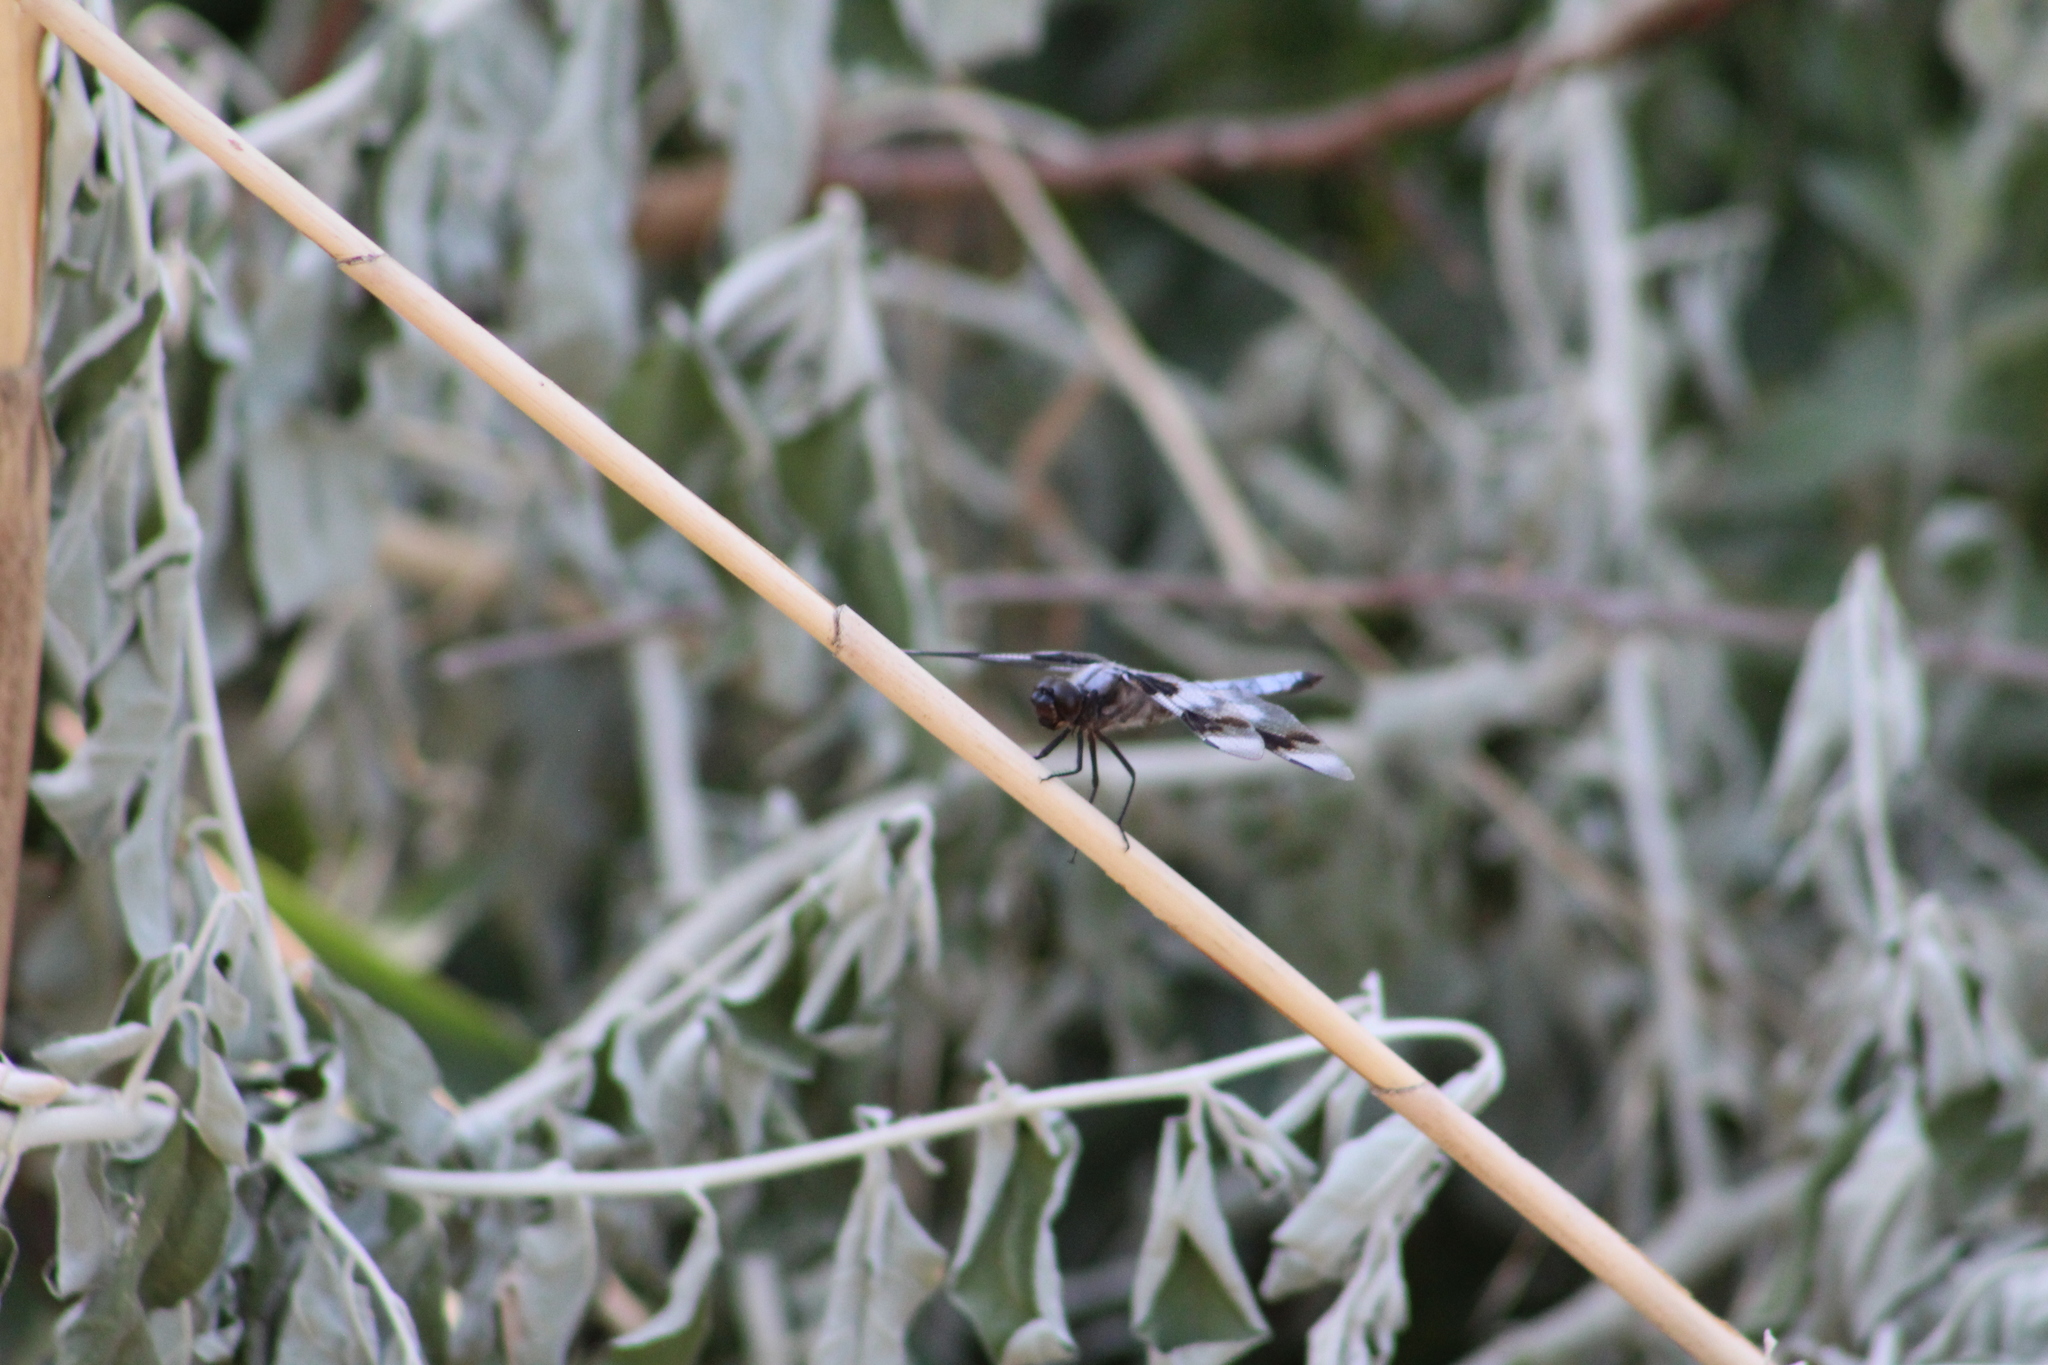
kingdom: Animalia
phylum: Arthropoda
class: Insecta
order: Odonata
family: Libellulidae
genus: Libellula
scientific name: Libellula forensis
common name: Eight-spotted skimmer
